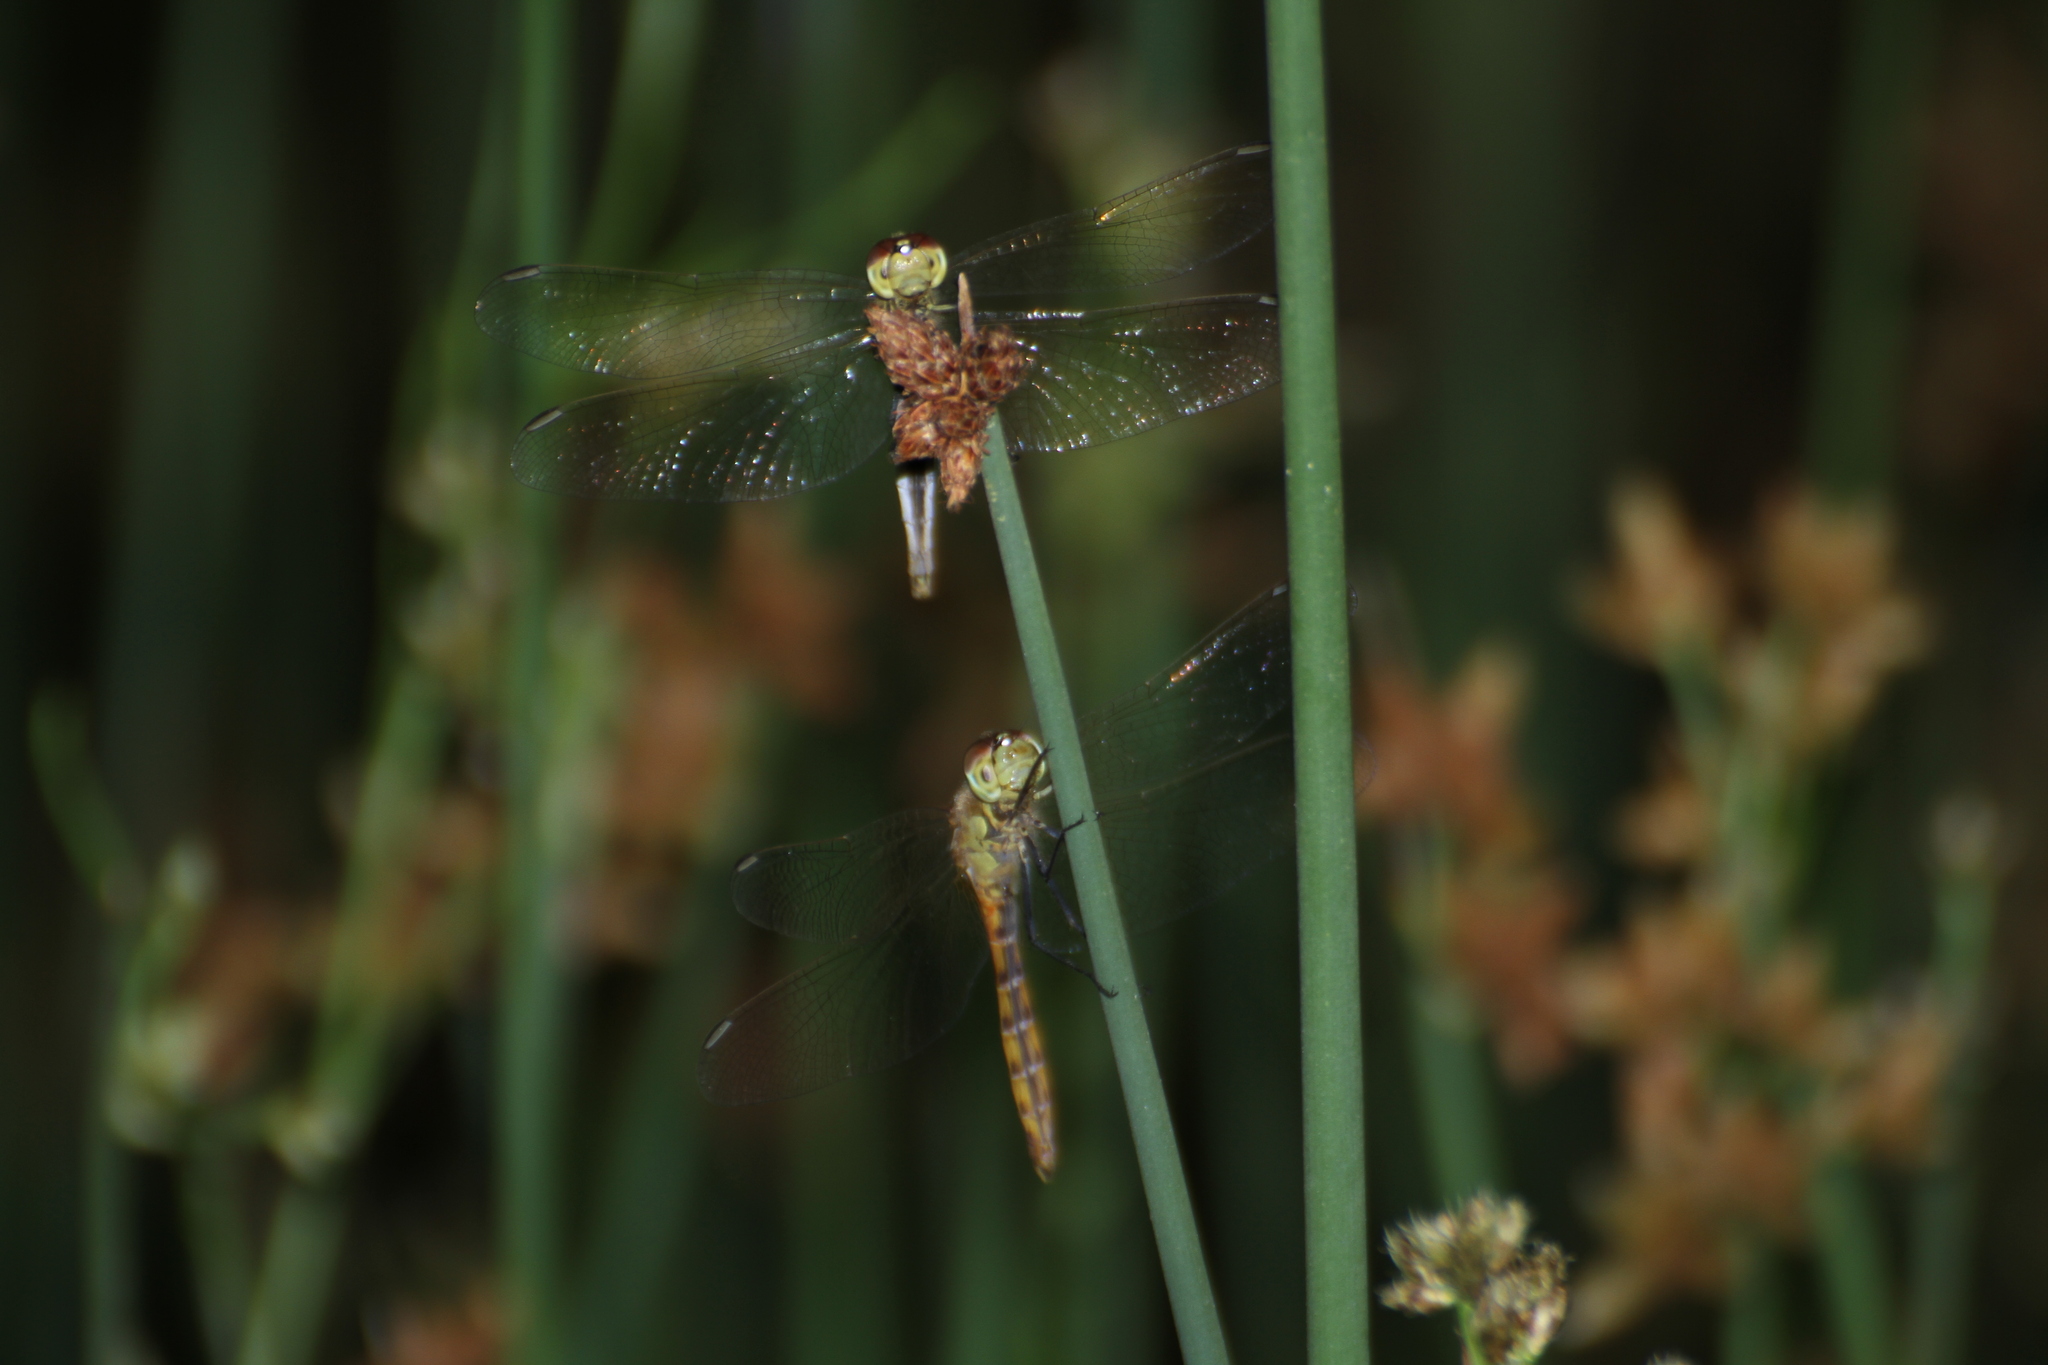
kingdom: Animalia
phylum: Arthropoda
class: Insecta
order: Odonata
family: Libellulidae
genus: Sympetrum
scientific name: Sympetrum depressiusculum
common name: Spotted darter
